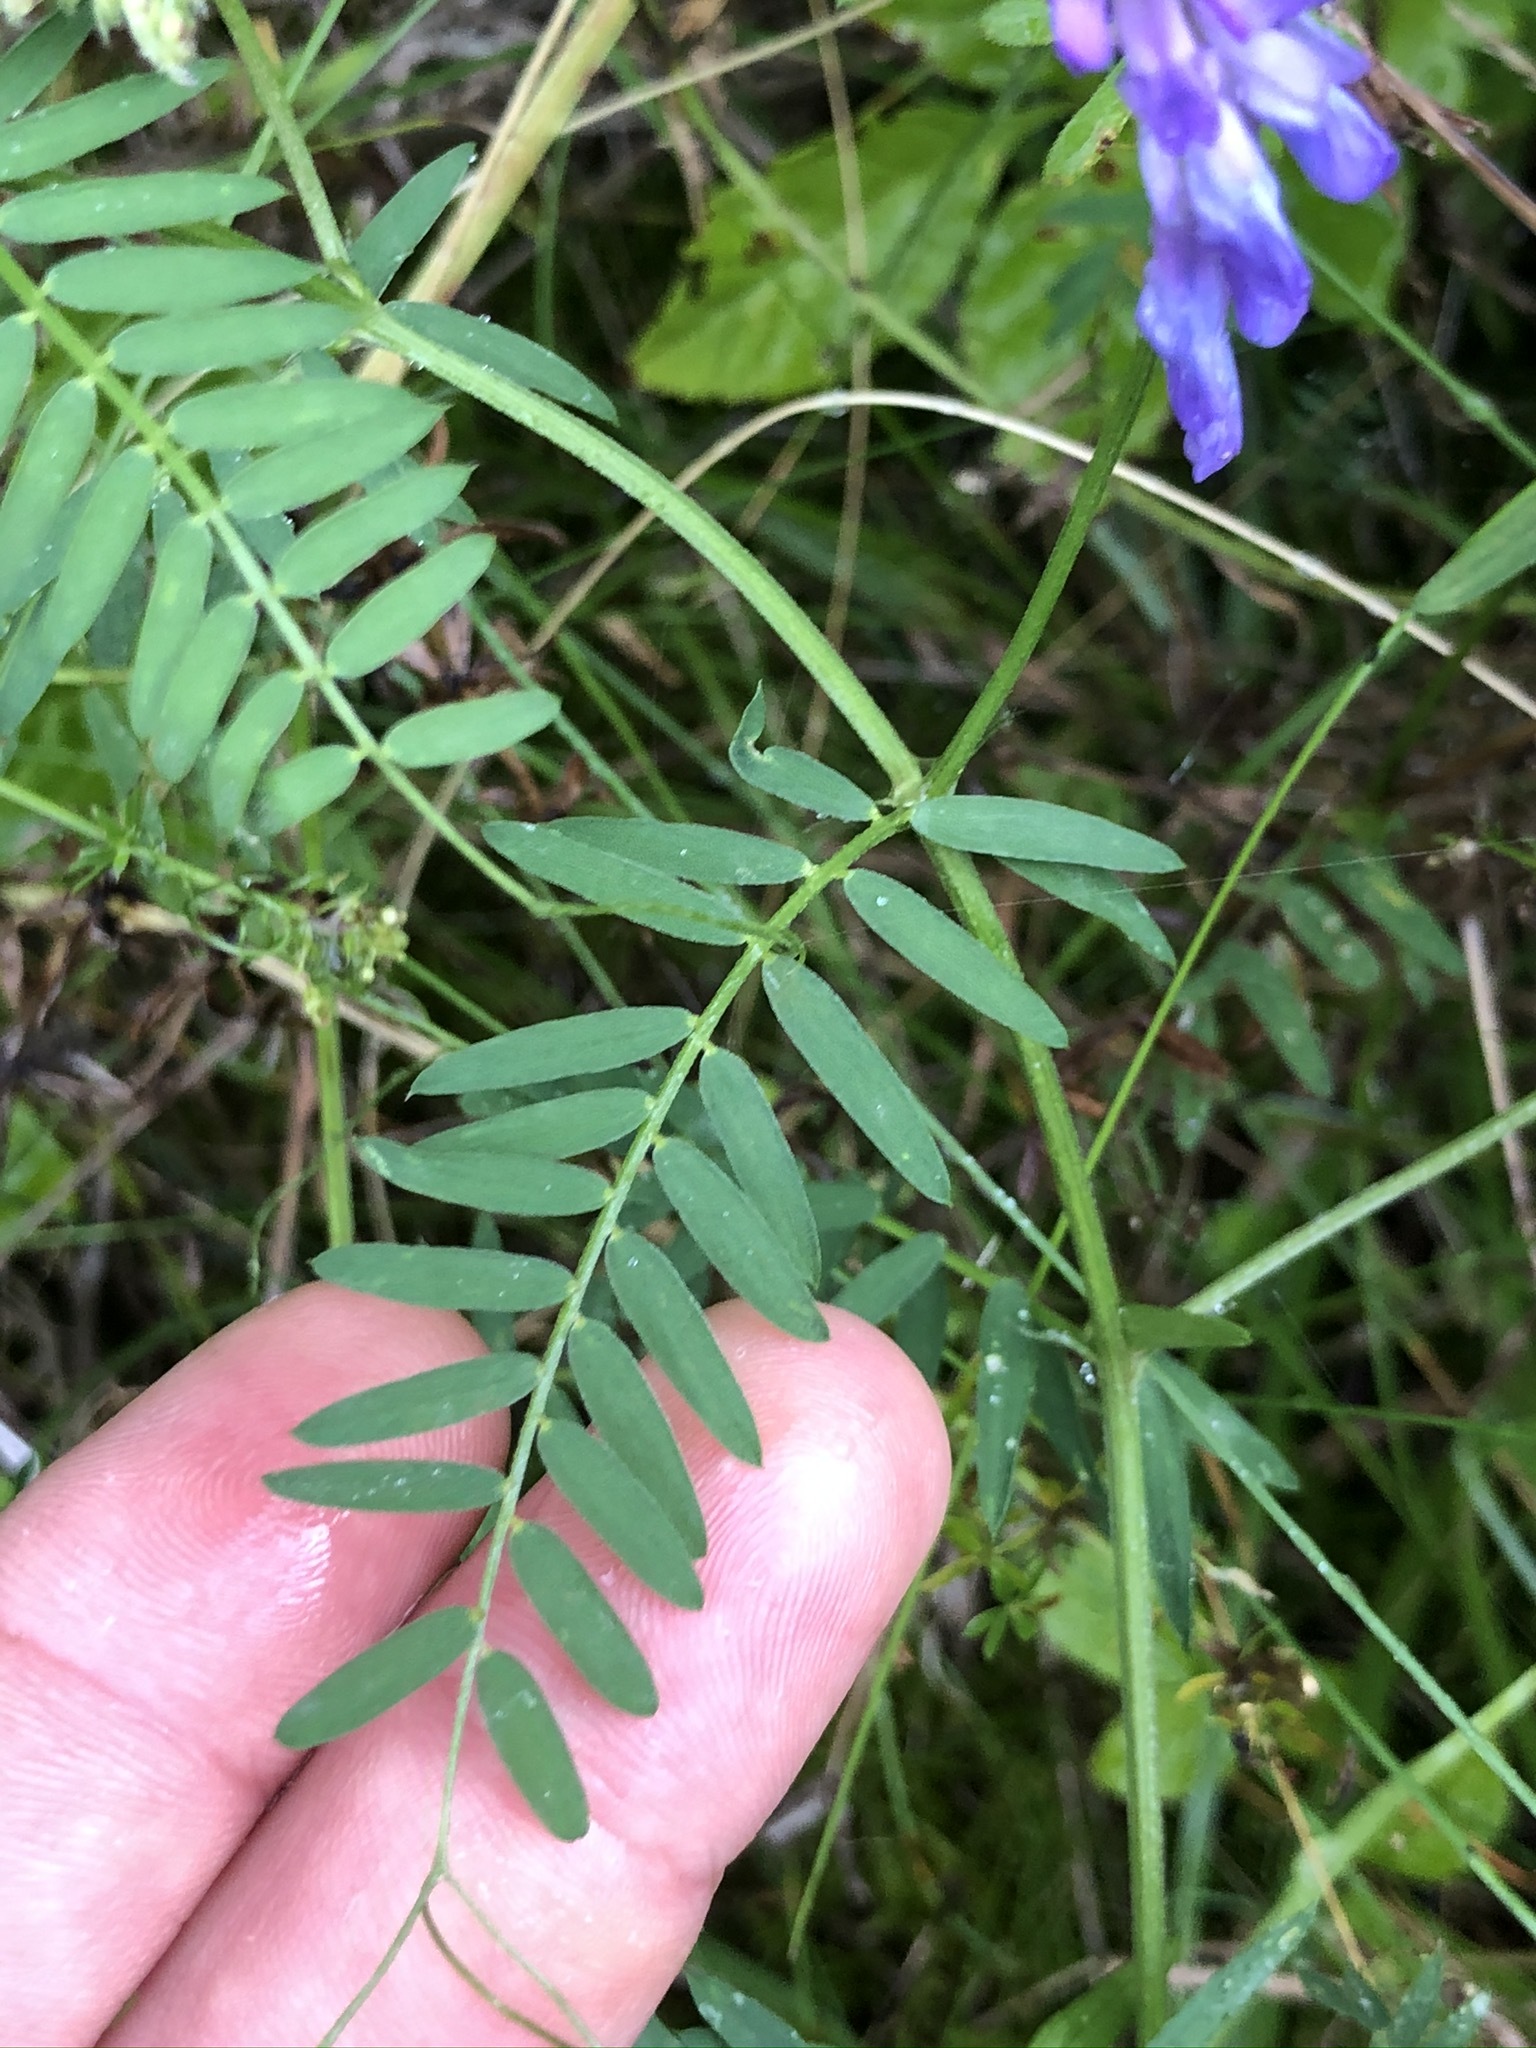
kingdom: Plantae
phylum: Tracheophyta
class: Magnoliopsida
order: Fabales
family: Fabaceae
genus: Vicia
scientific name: Vicia cracca
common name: Bird vetch
